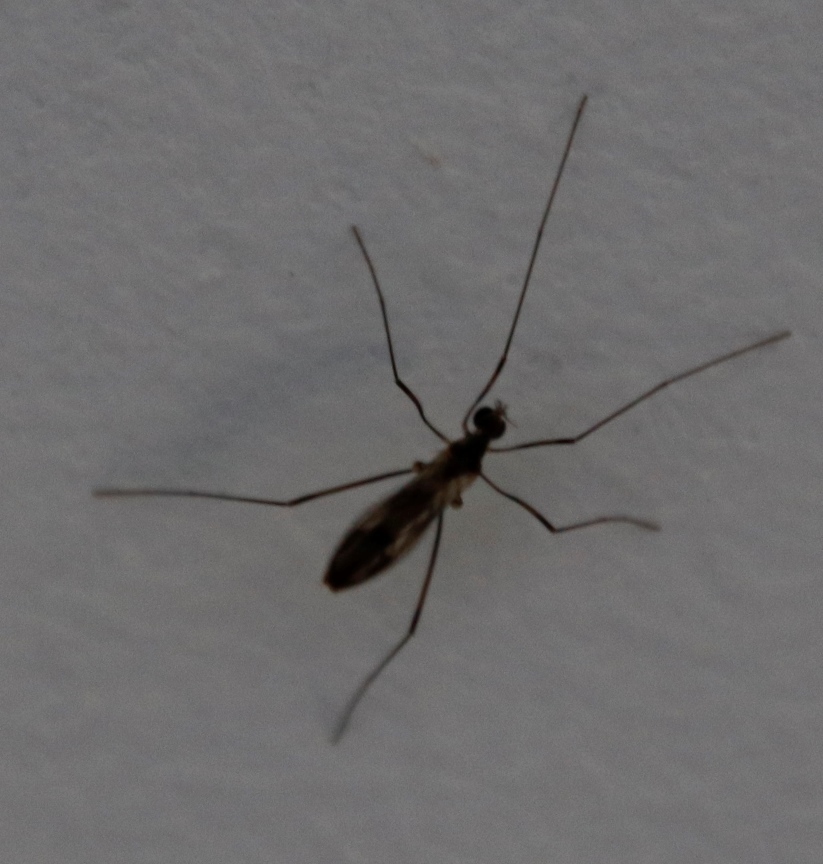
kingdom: Animalia
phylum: Arthropoda
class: Insecta
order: Diptera
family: Limoniidae
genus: Erioptera
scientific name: Erioptera peringueyi
